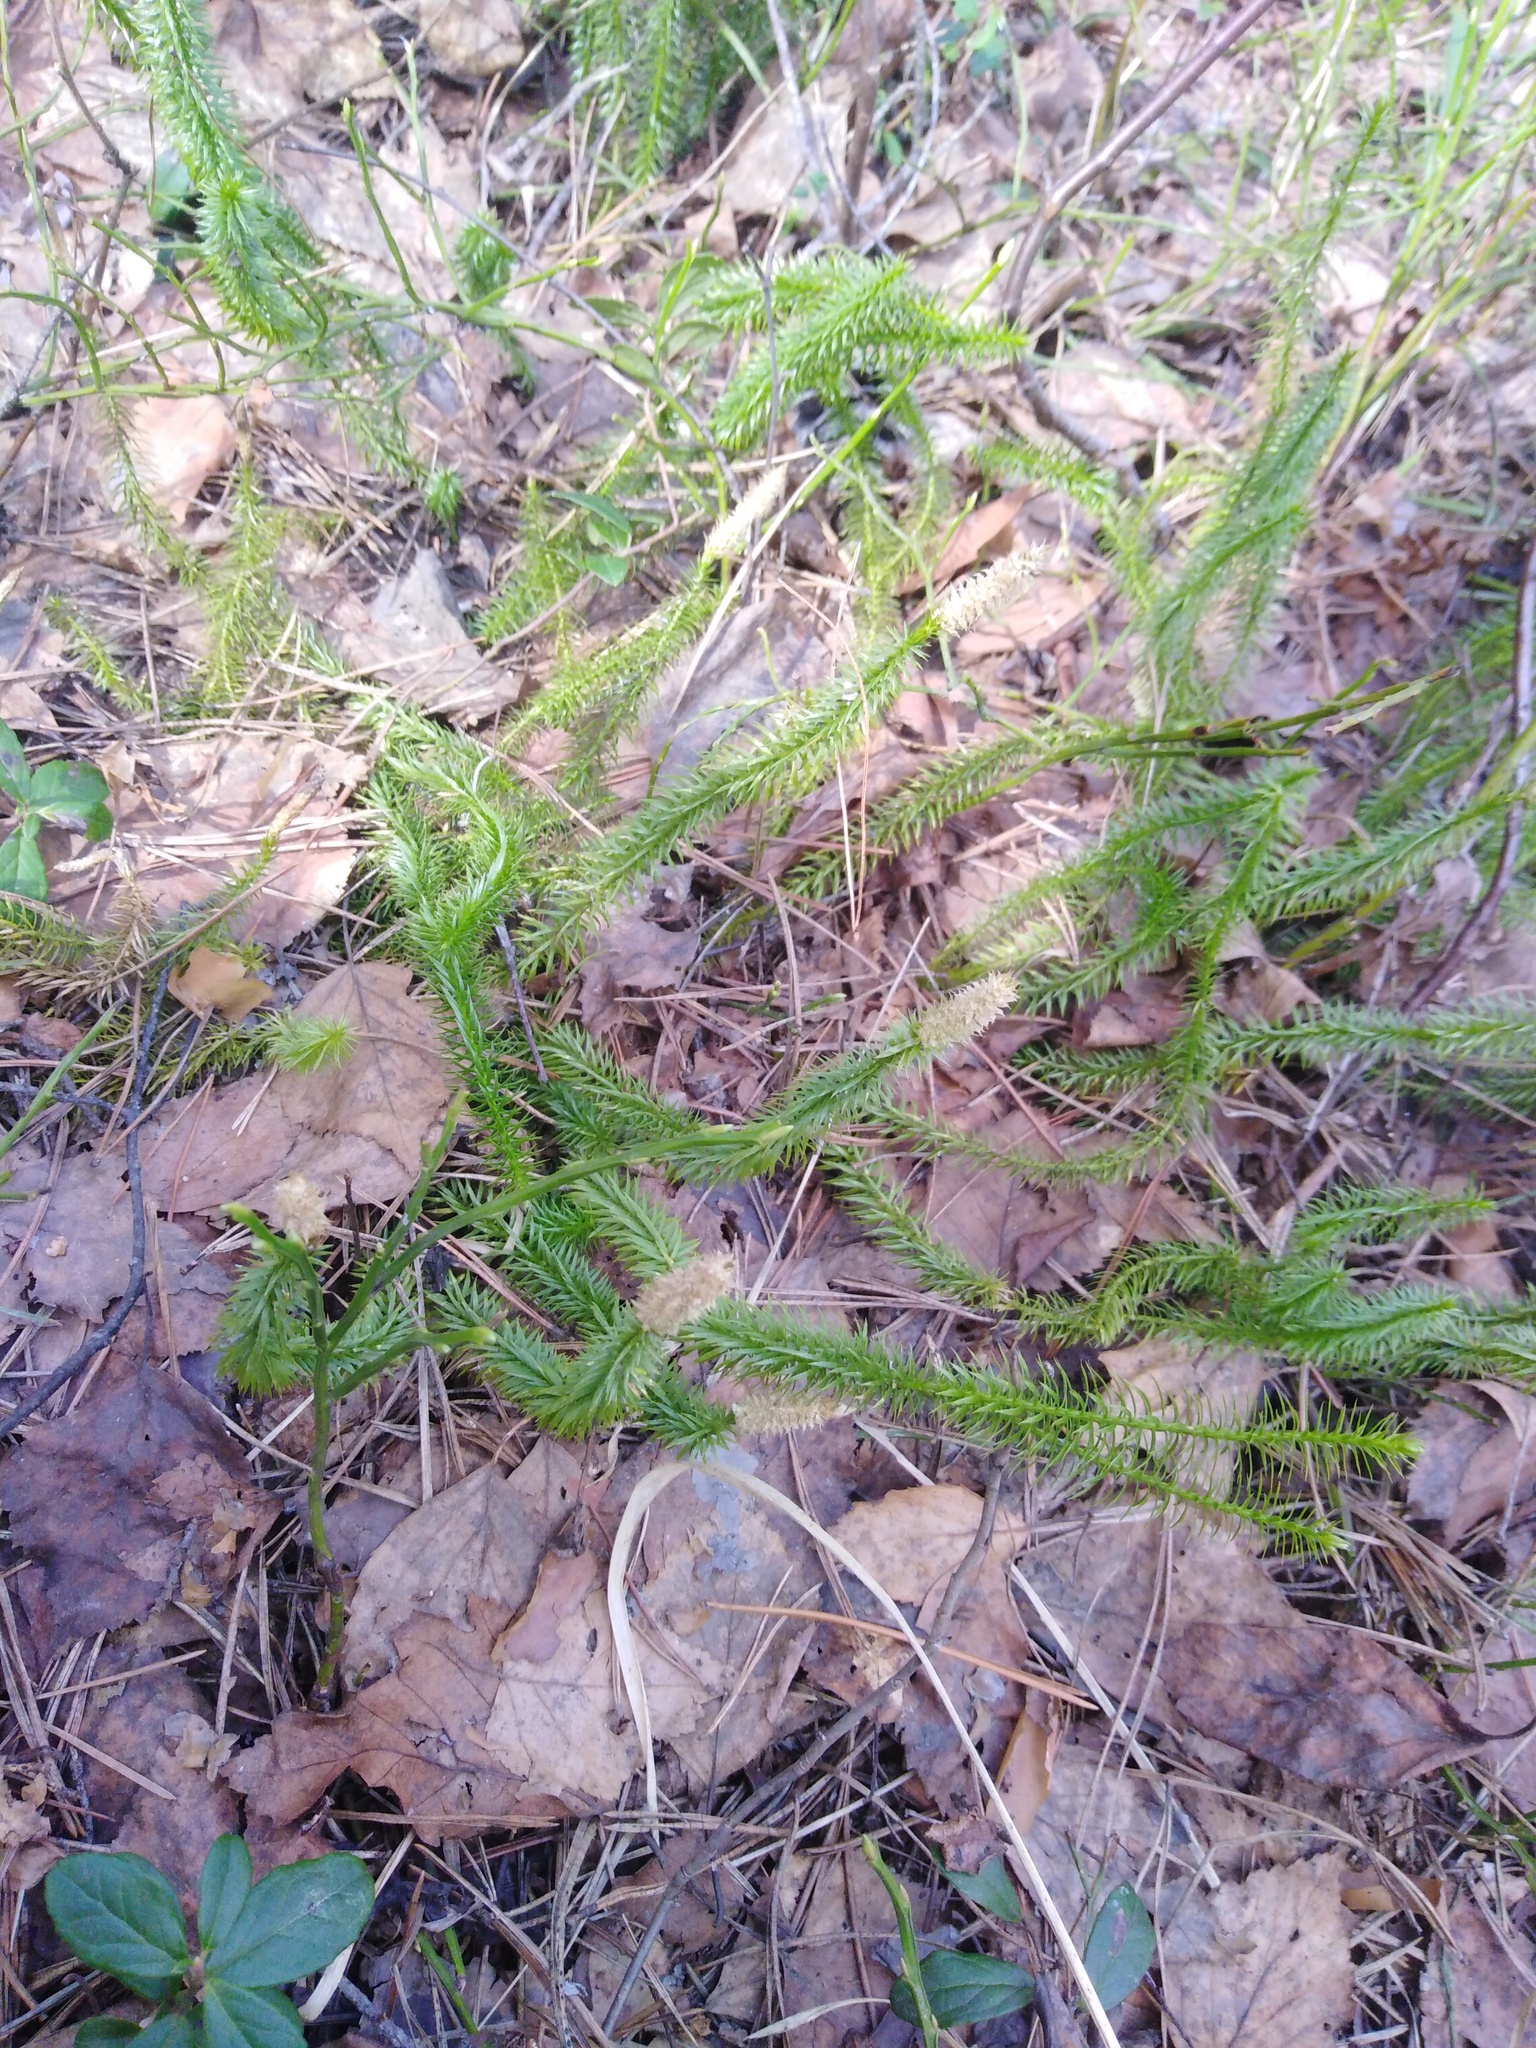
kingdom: Plantae
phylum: Tracheophyta
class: Lycopodiopsida
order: Lycopodiales
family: Lycopodiaceae
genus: Spinulum
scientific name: Spinulum annotinum
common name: Interrupted club-moss
